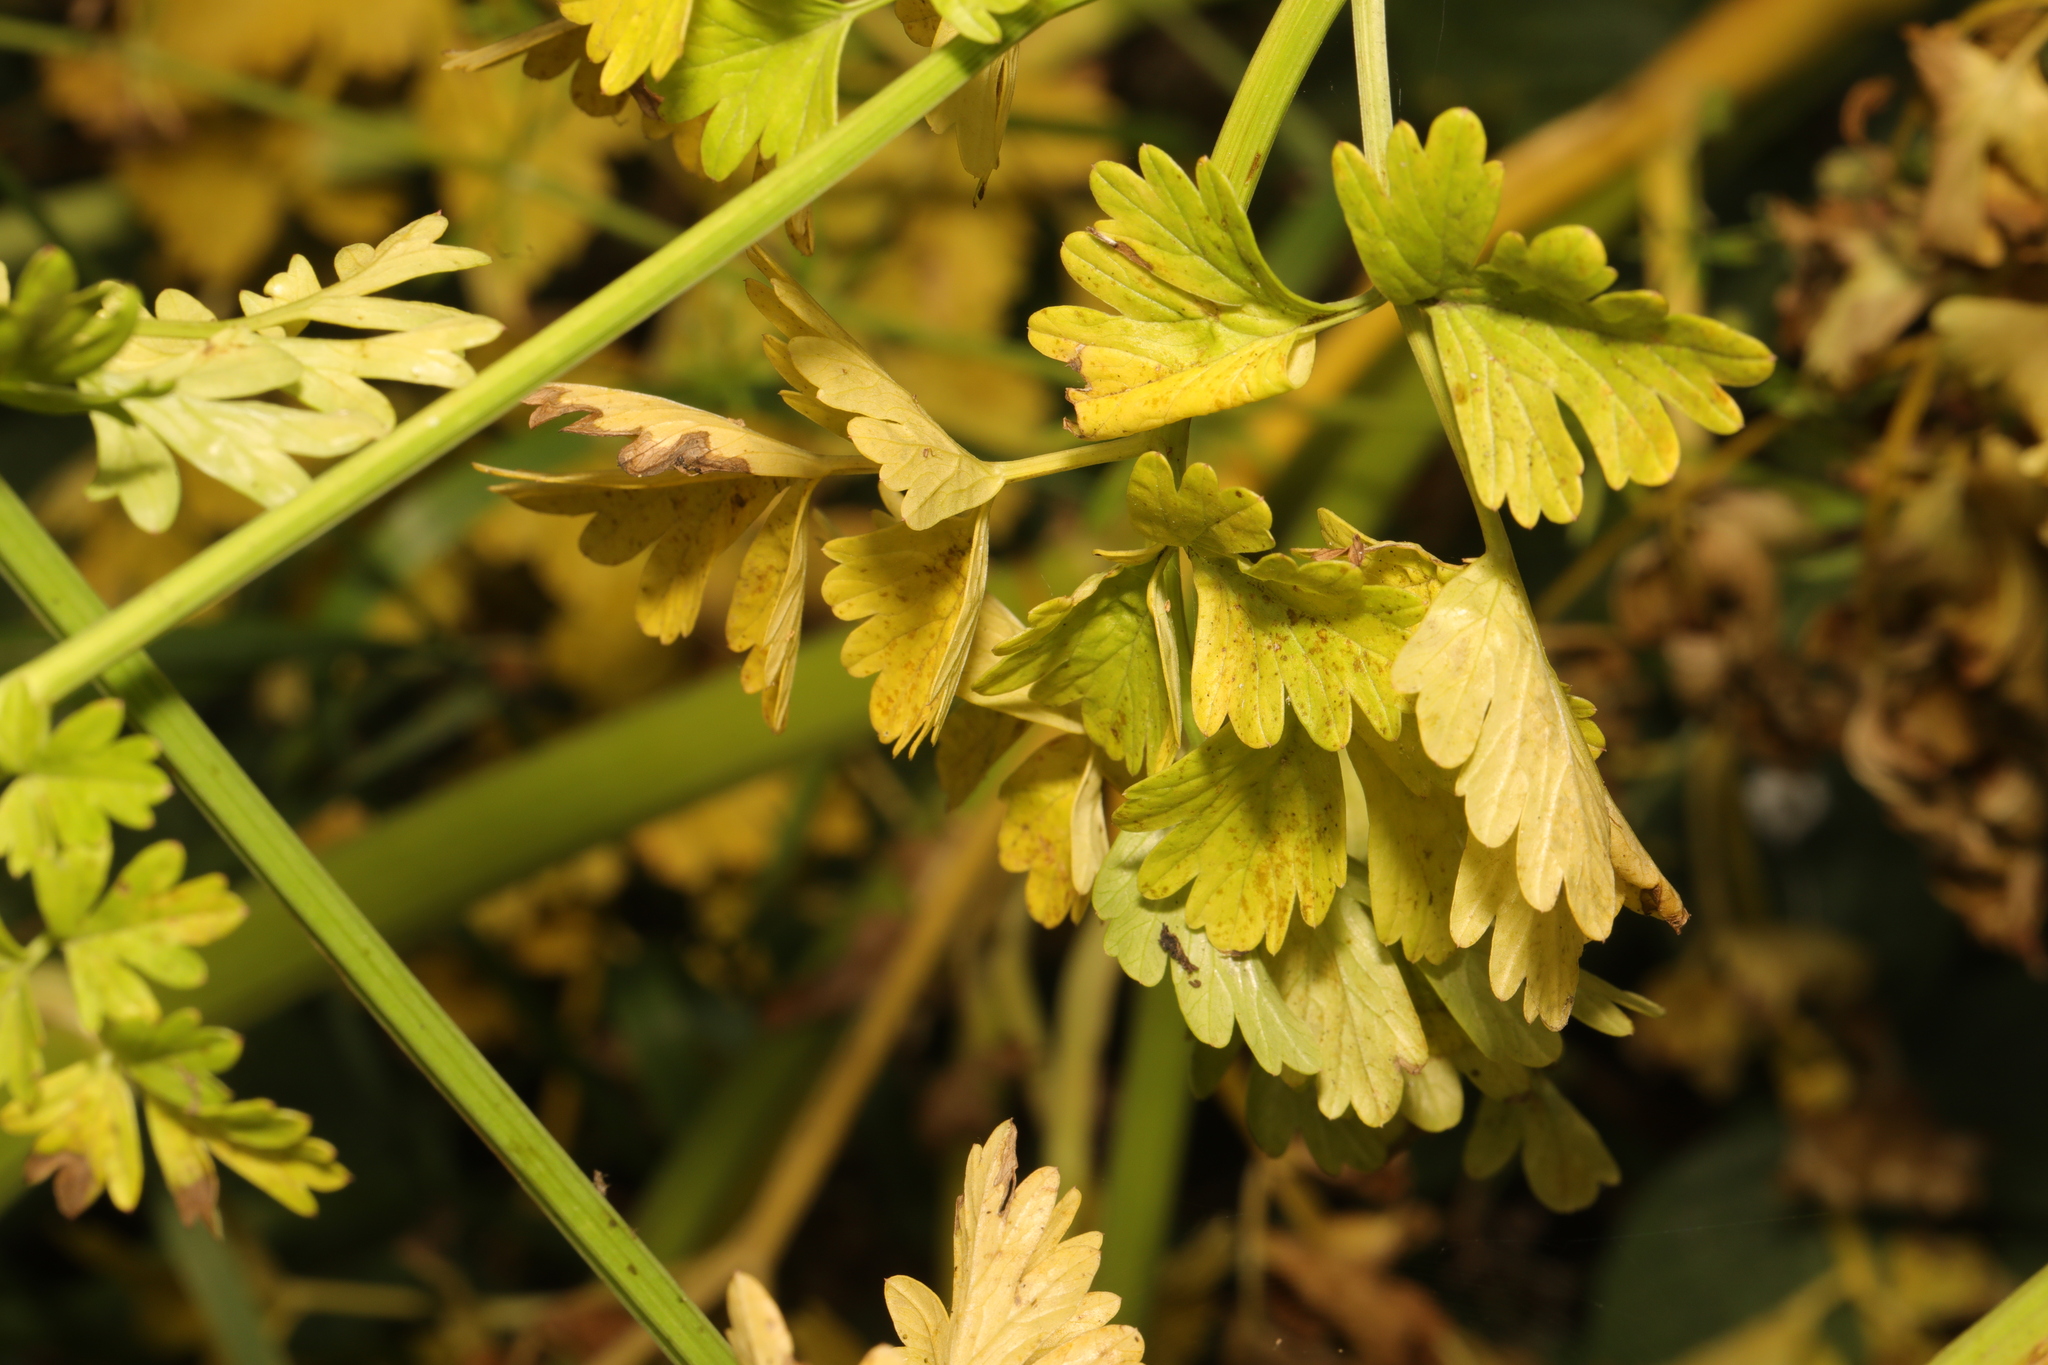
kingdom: Plantae
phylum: Tracheophyta
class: Magnoliopsida
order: Apiales
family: Apiaceae
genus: Oenanthe
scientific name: Oenanthe crocata
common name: Hemlock water-dropwort
